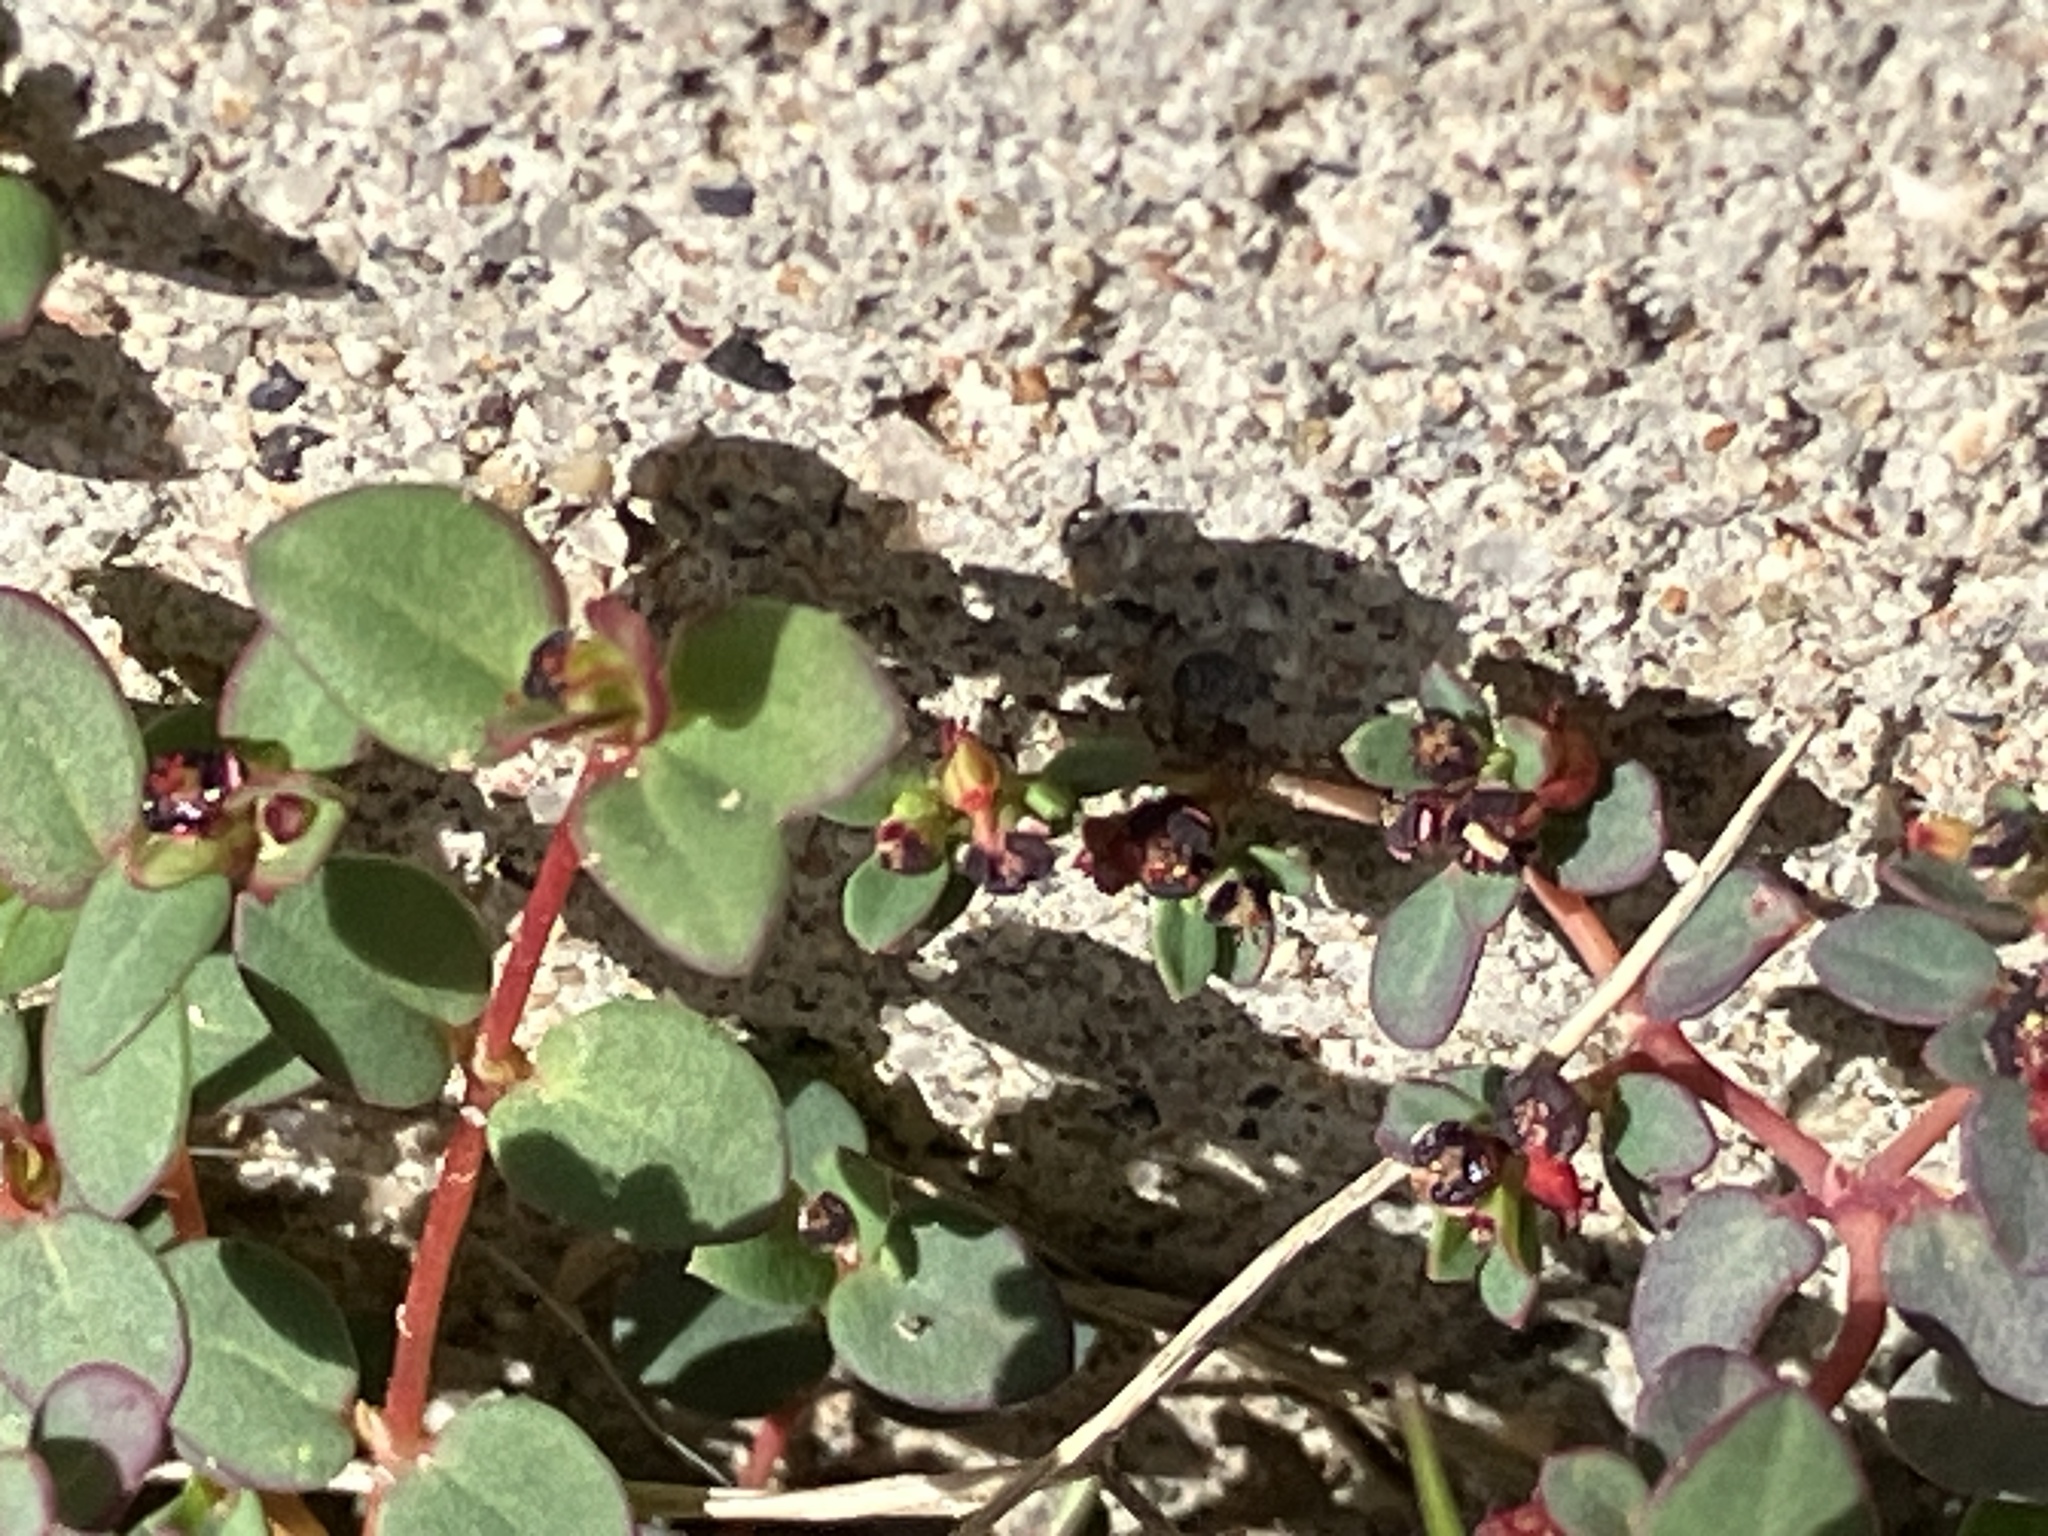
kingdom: Plantae
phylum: Tracheophyta
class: Magnoliopsida
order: Malpighiales
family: Euphorbiaceae
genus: Euphorbia
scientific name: Euphorbia polycarpa
